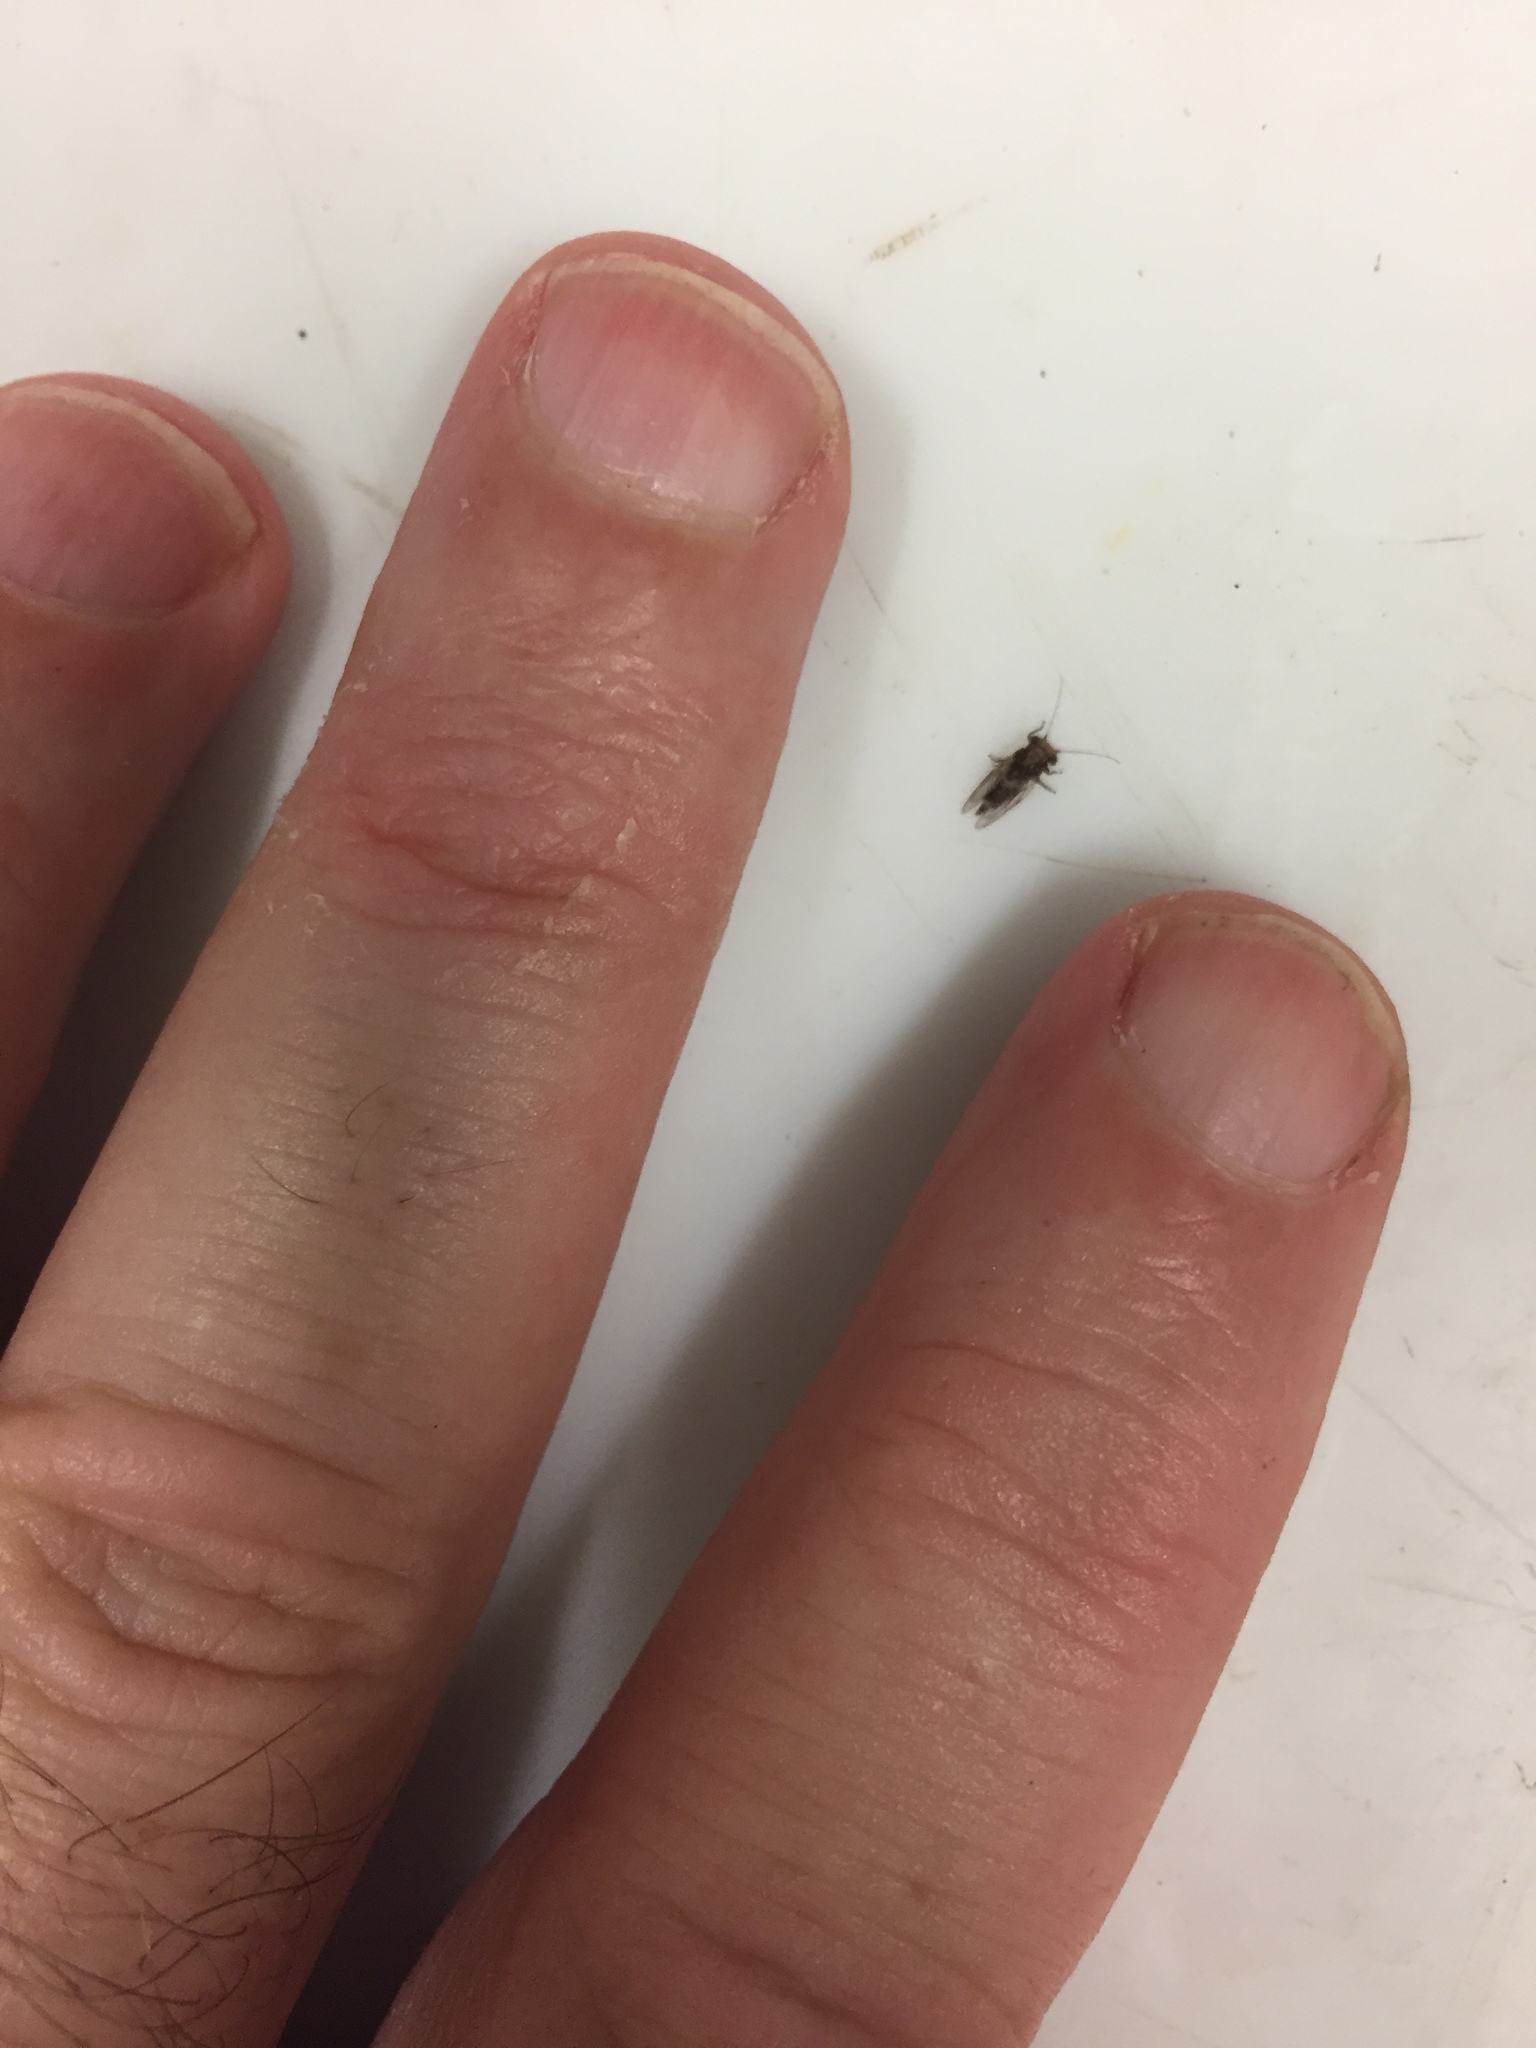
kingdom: Animalia
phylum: Arthropoda
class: Insecta
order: Hemiptera
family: Aphalaridae
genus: Phellopsylla
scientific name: Phellopsylla formicosa
